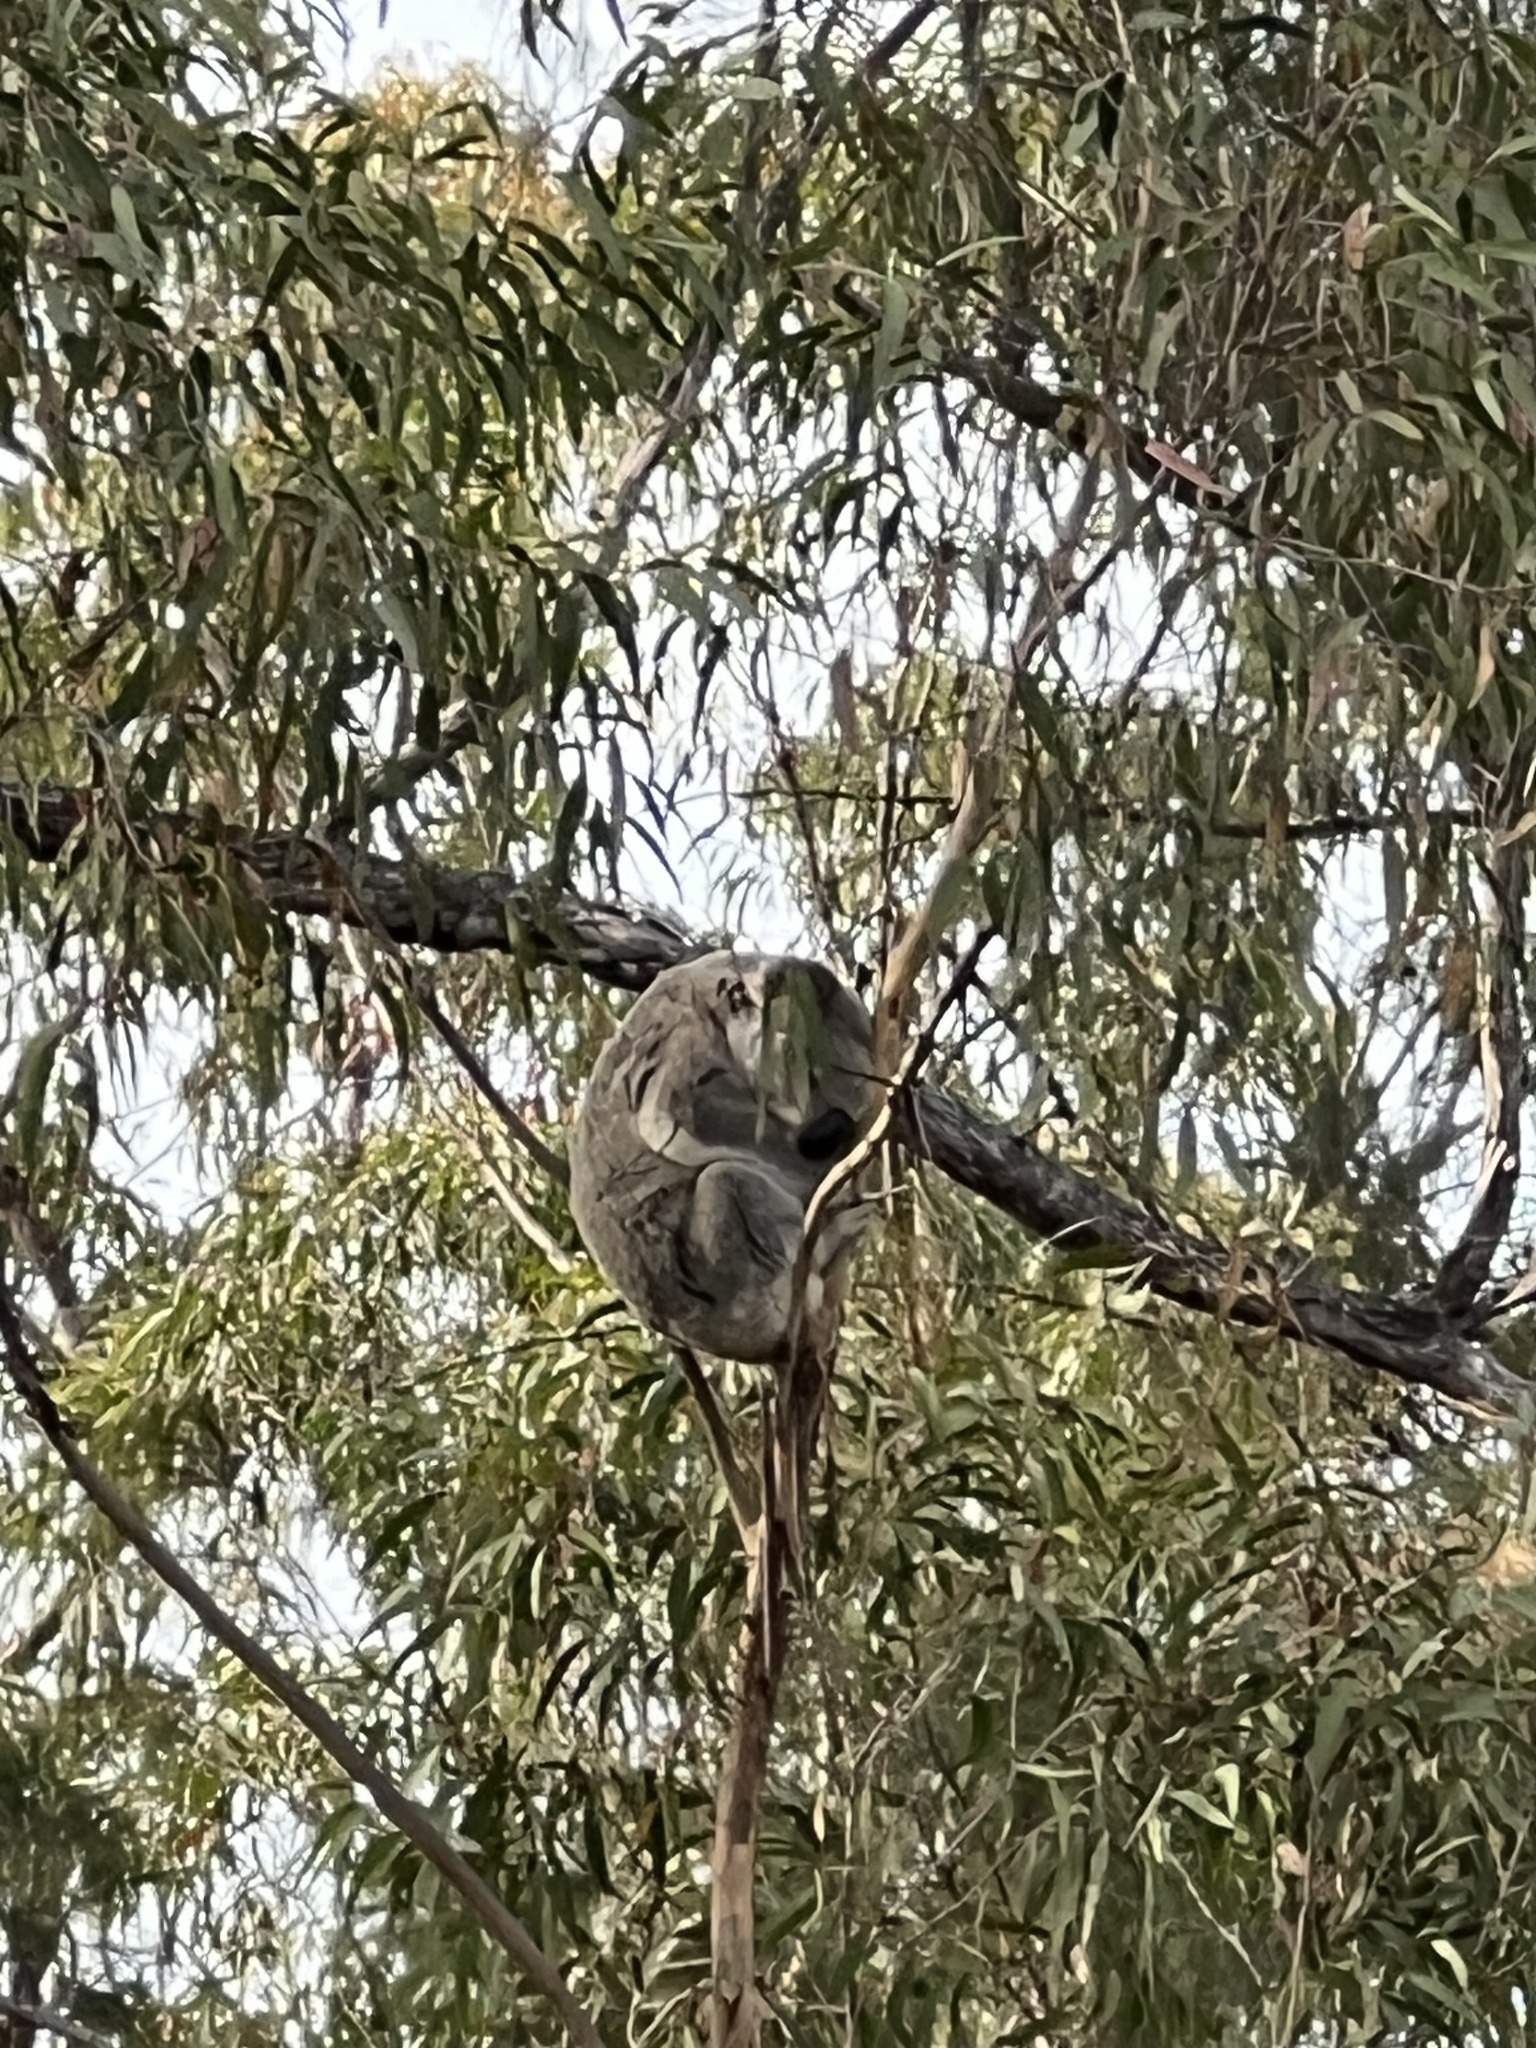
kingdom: Animalia
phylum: Chordata
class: Mammalia
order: Diprotodontia
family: Phascolarctidae
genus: Phascolarctos
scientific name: Phascolarctos cinereus
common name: Koala
